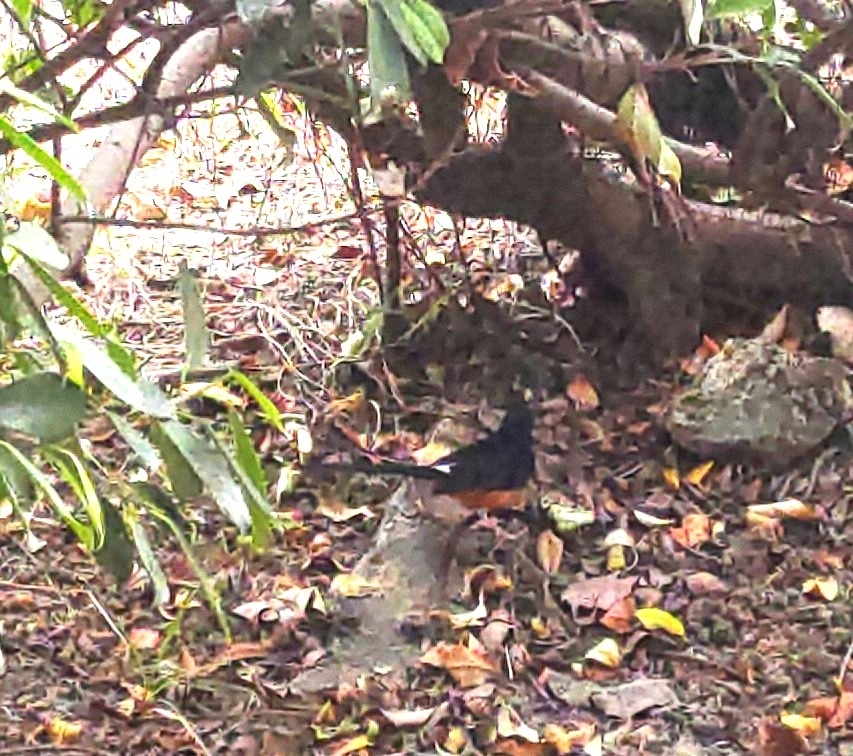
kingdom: Animalia
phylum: Chordata
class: Aves
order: Passeriformes
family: Muscicapidae
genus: Copsychus
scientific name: Copsychus malabaricus
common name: White-rumped shama
